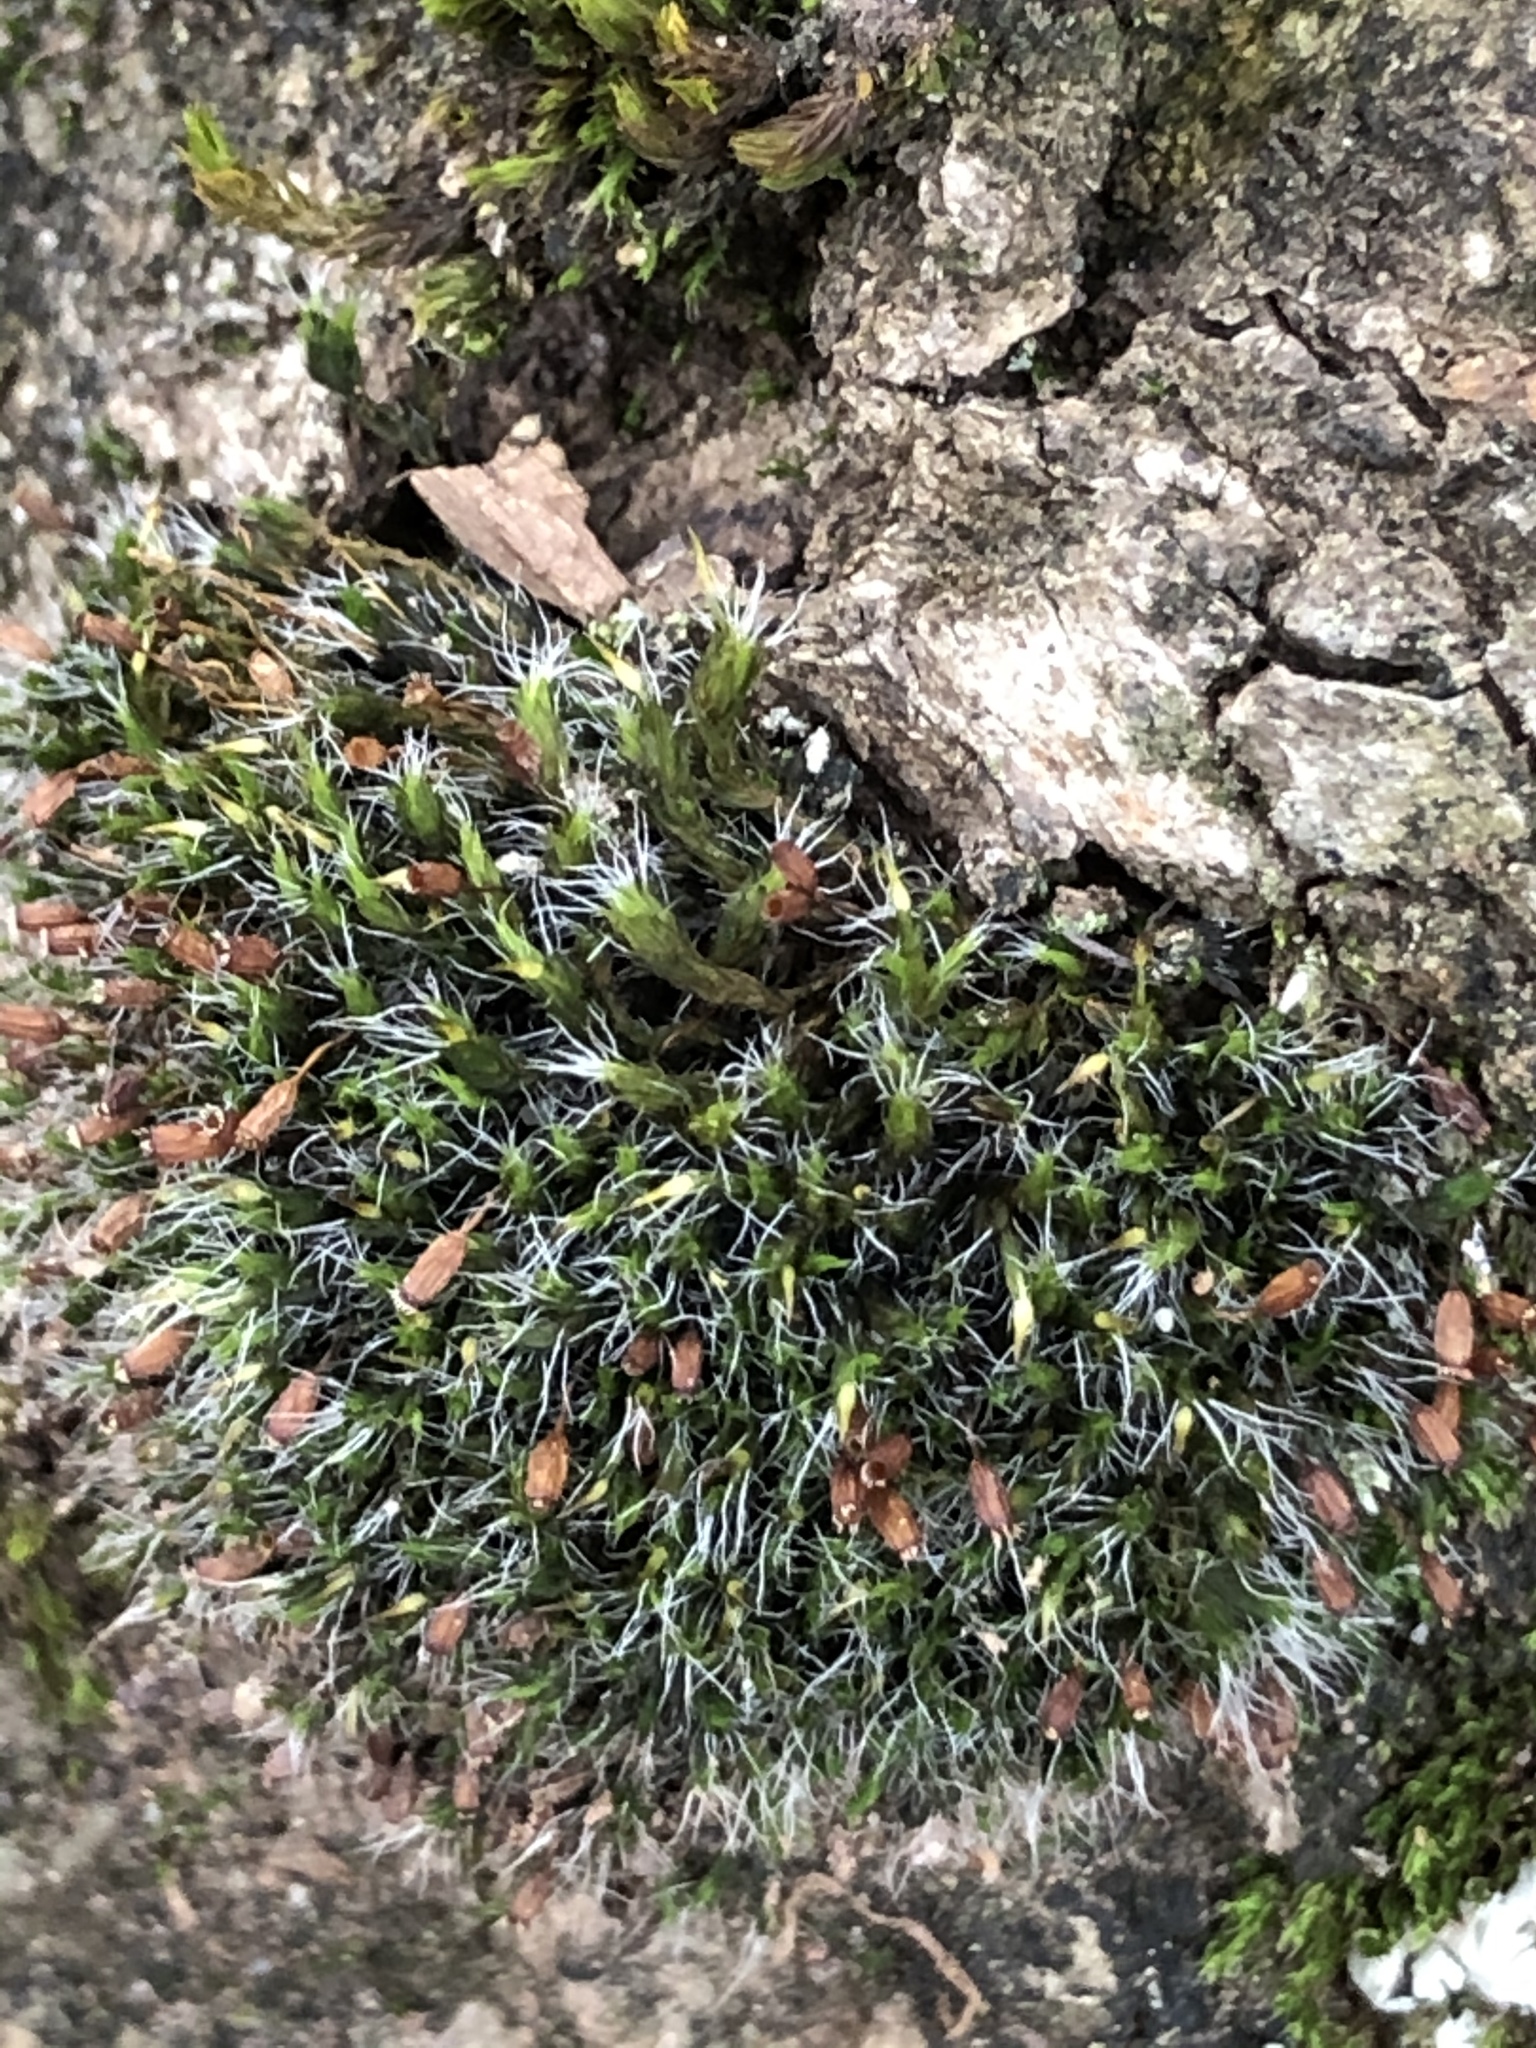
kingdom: Plantae
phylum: Bryophyta
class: Bryopsida
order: Grimmiales
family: Grimmiaceae
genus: Grimmia
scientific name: Grimmia pulvinata
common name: Grey-cushioned grimmia
